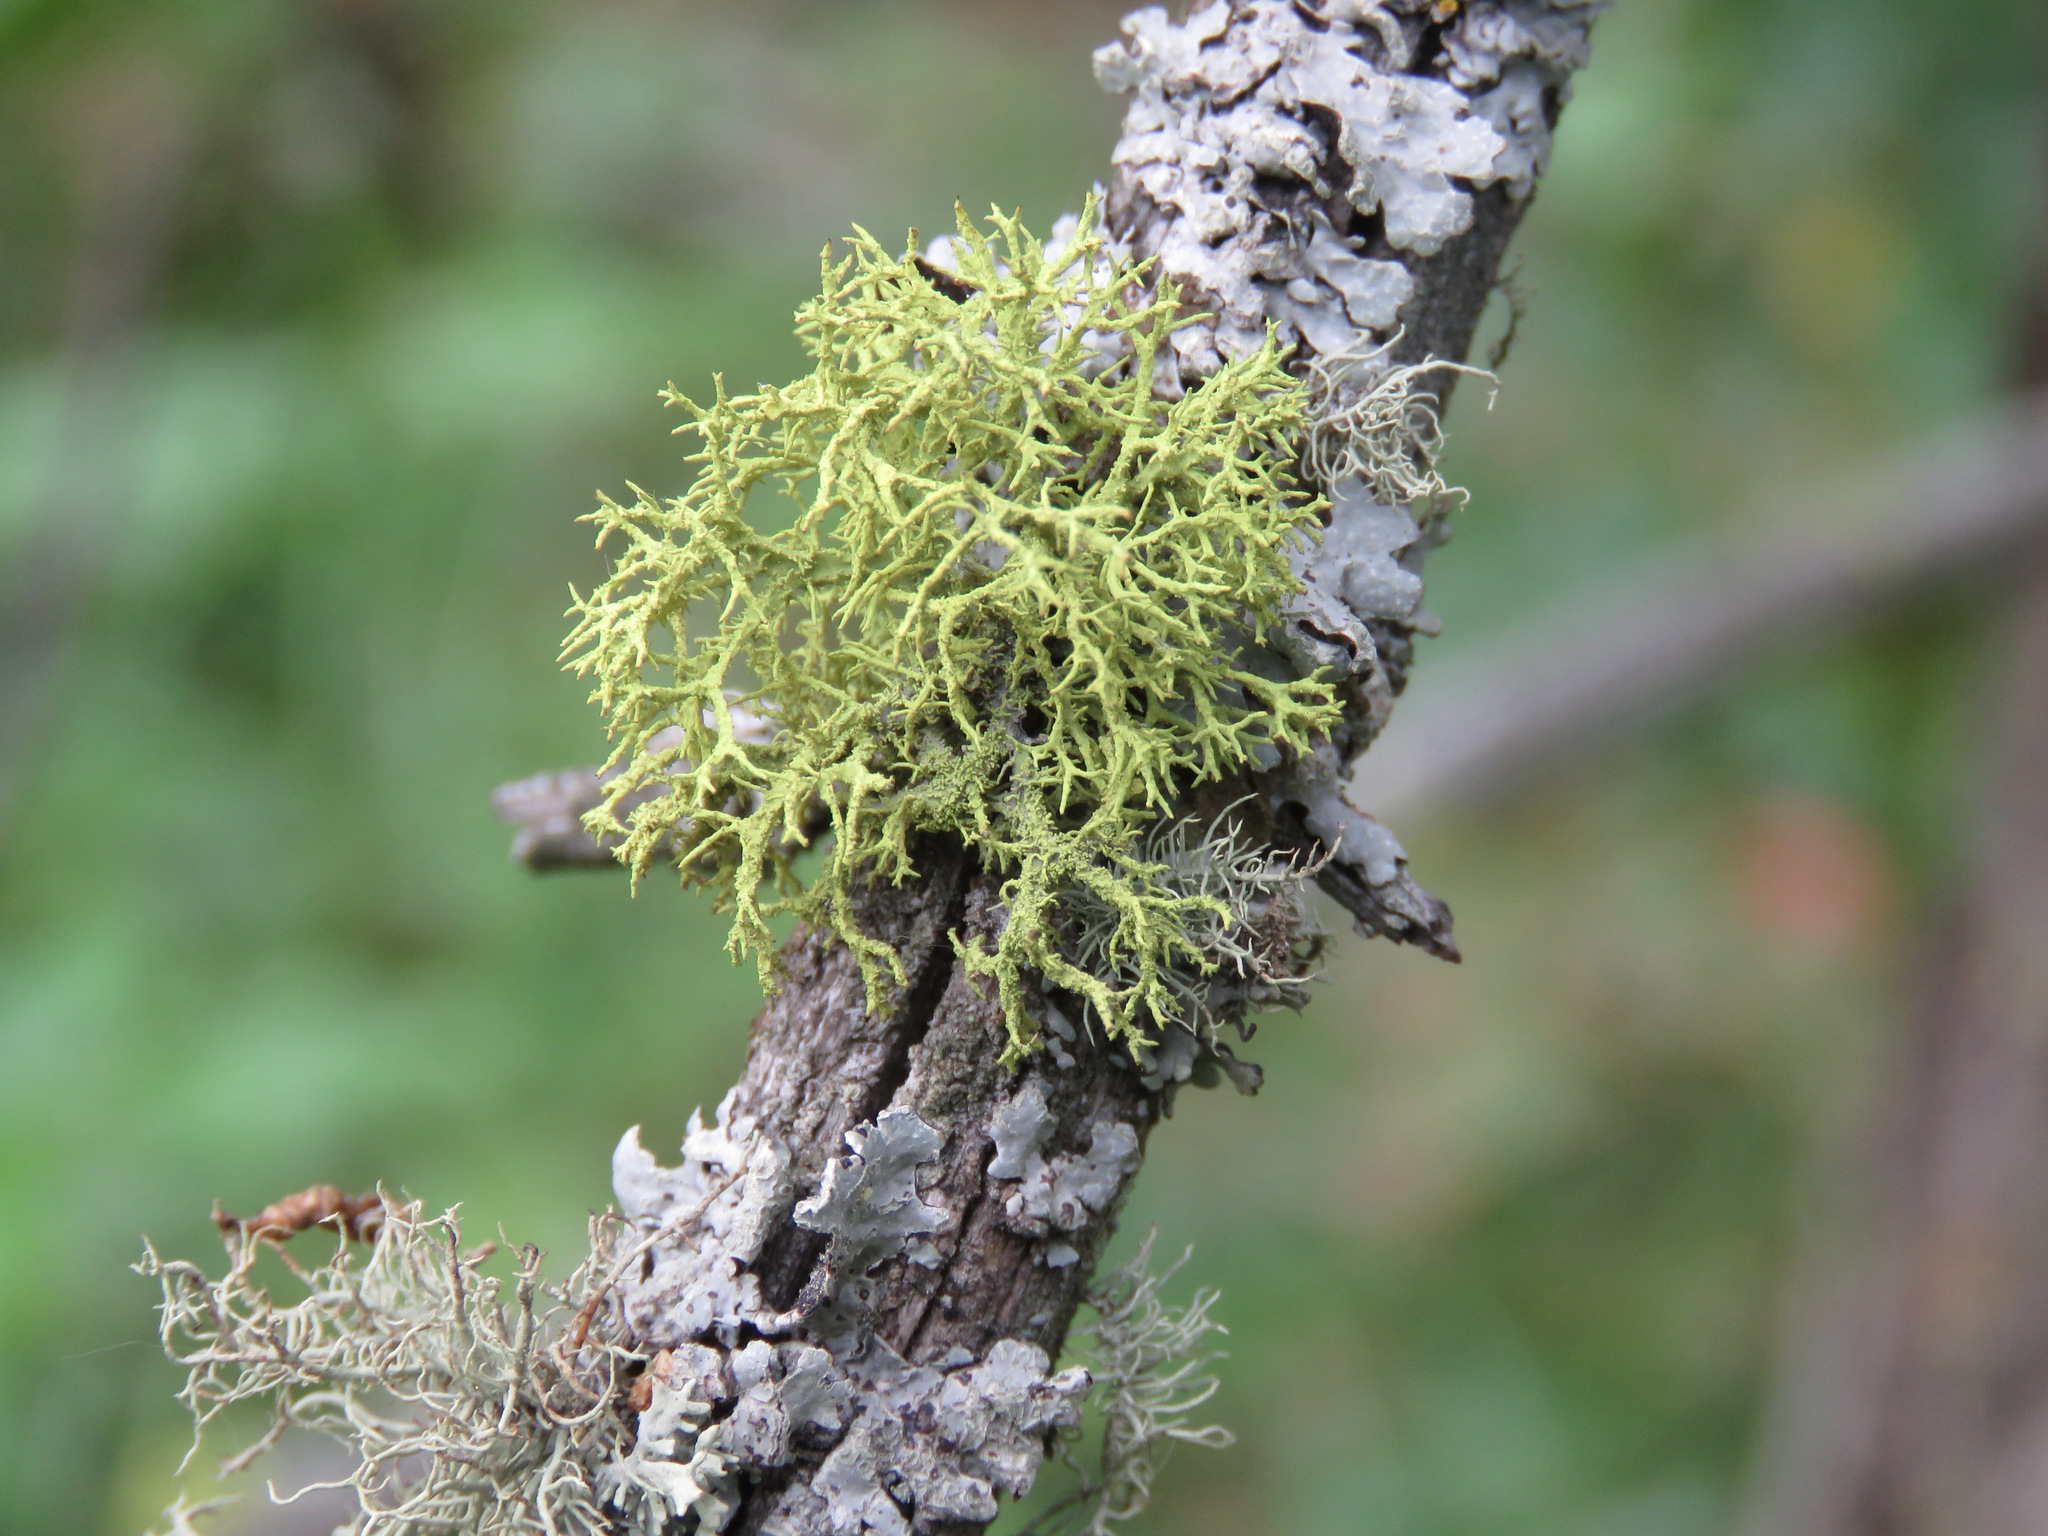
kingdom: Fungi
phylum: Ascomycota
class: Lecanoromycetes
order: Lecanorales
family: Parmeliaceae
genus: Letharia
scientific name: Letharia vulpina
